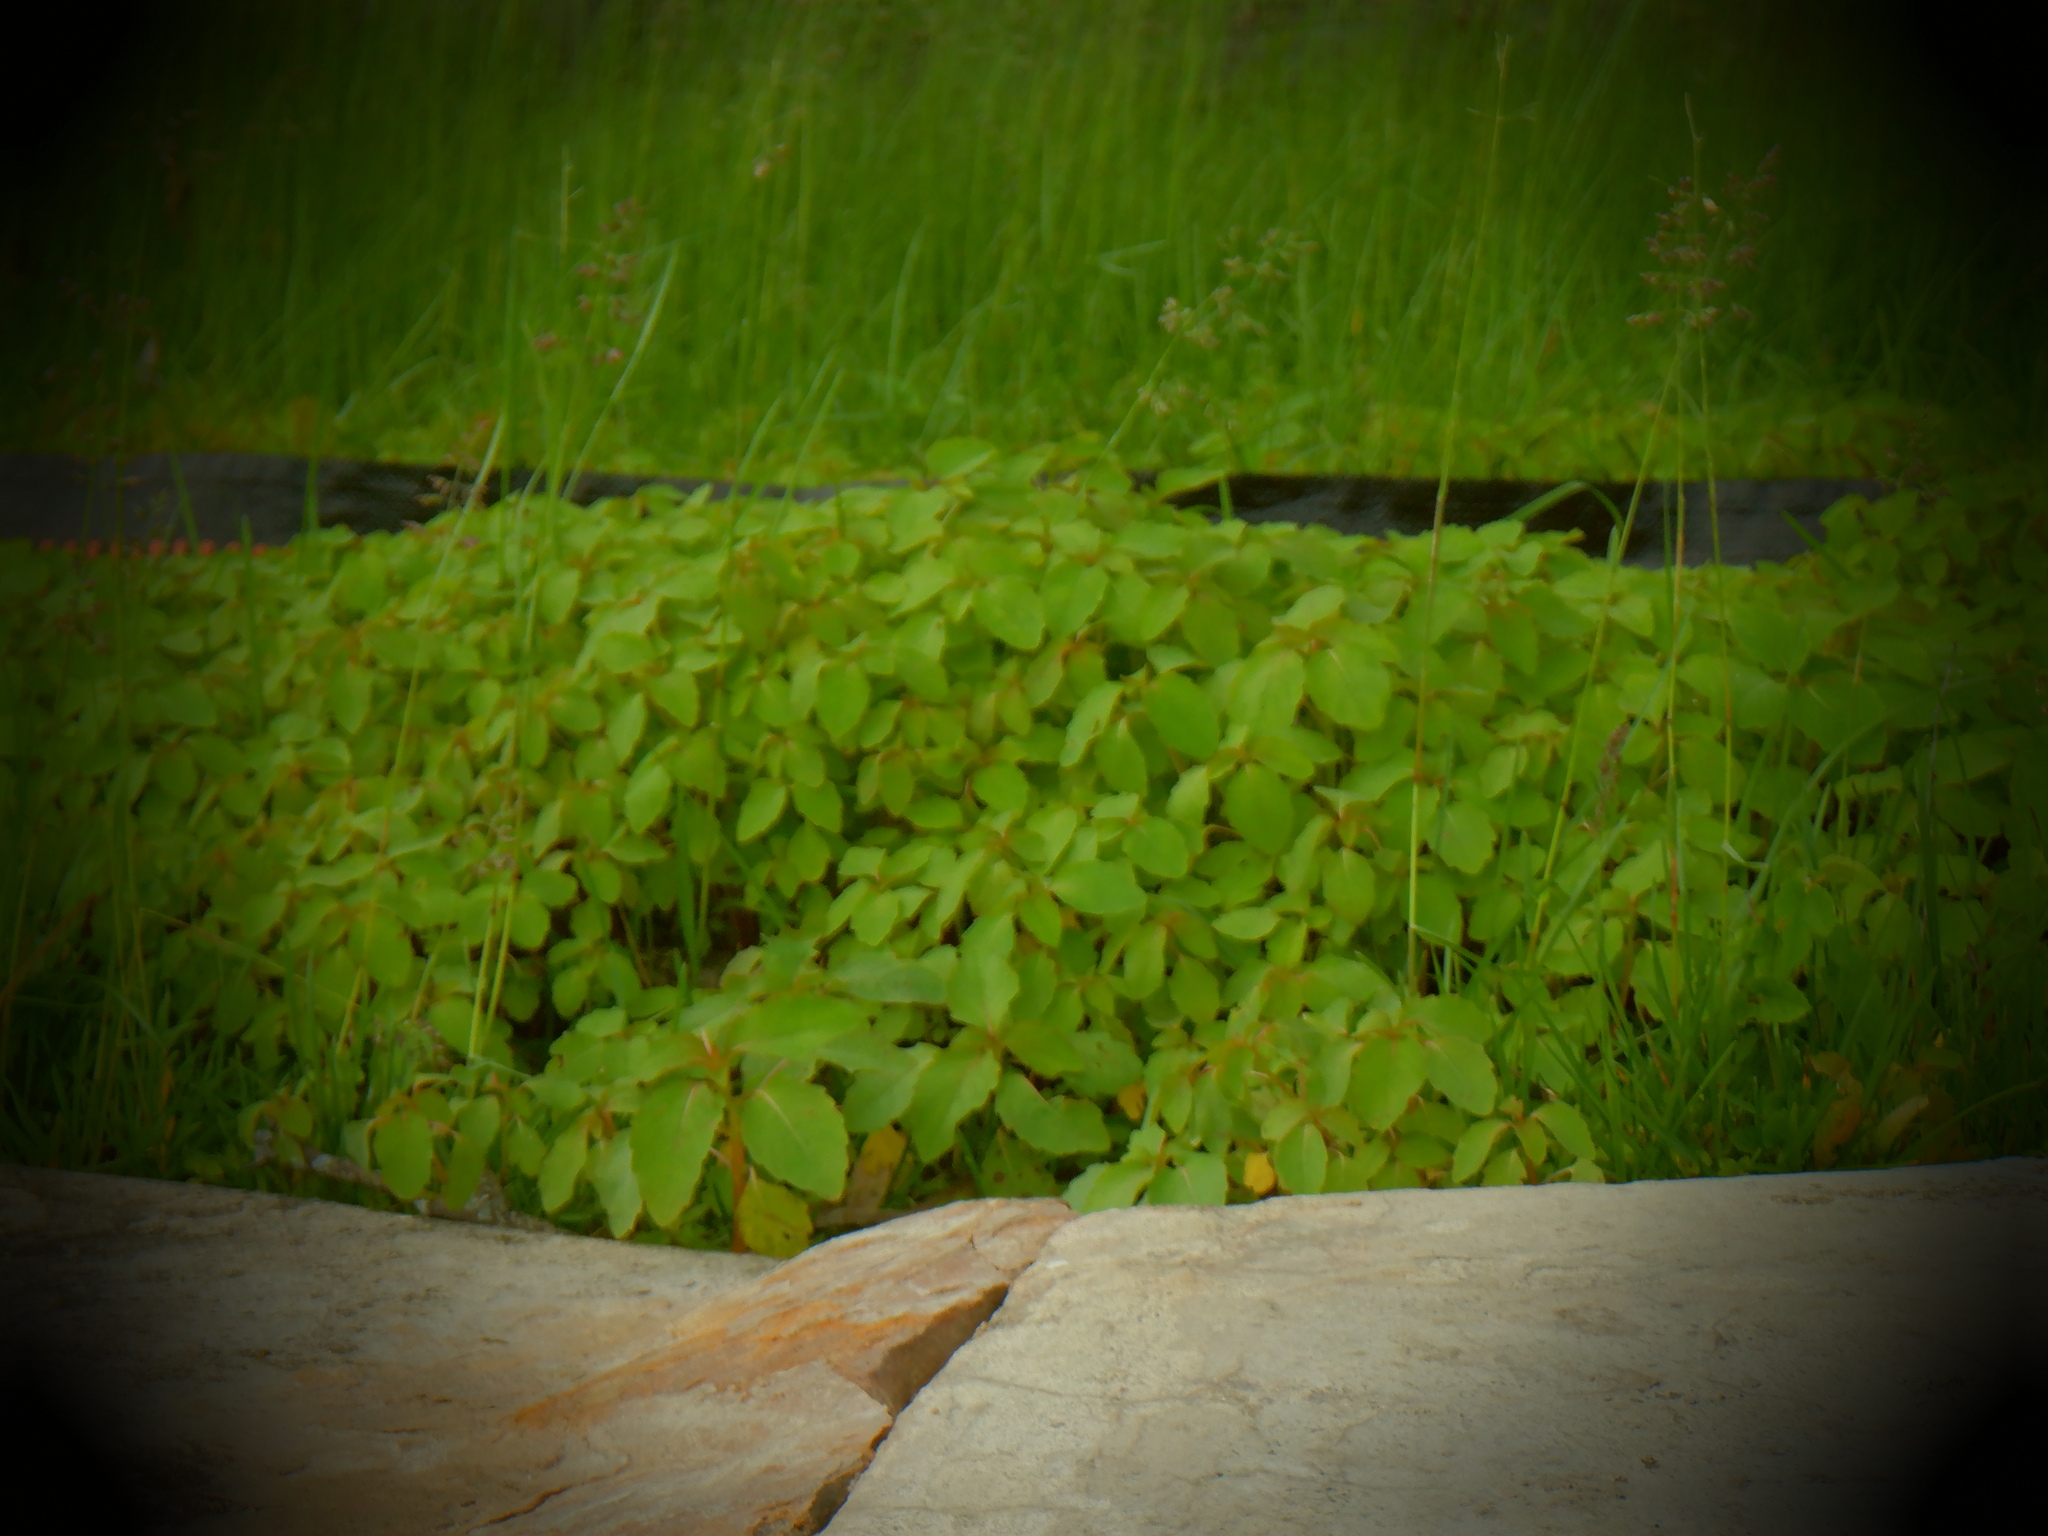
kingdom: Plantae
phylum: Tracheophyta
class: Magnoliopsida
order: Ericales
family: Balsaminaceae
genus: Impatiens
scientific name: Impatiens capensis
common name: Orange balsam
